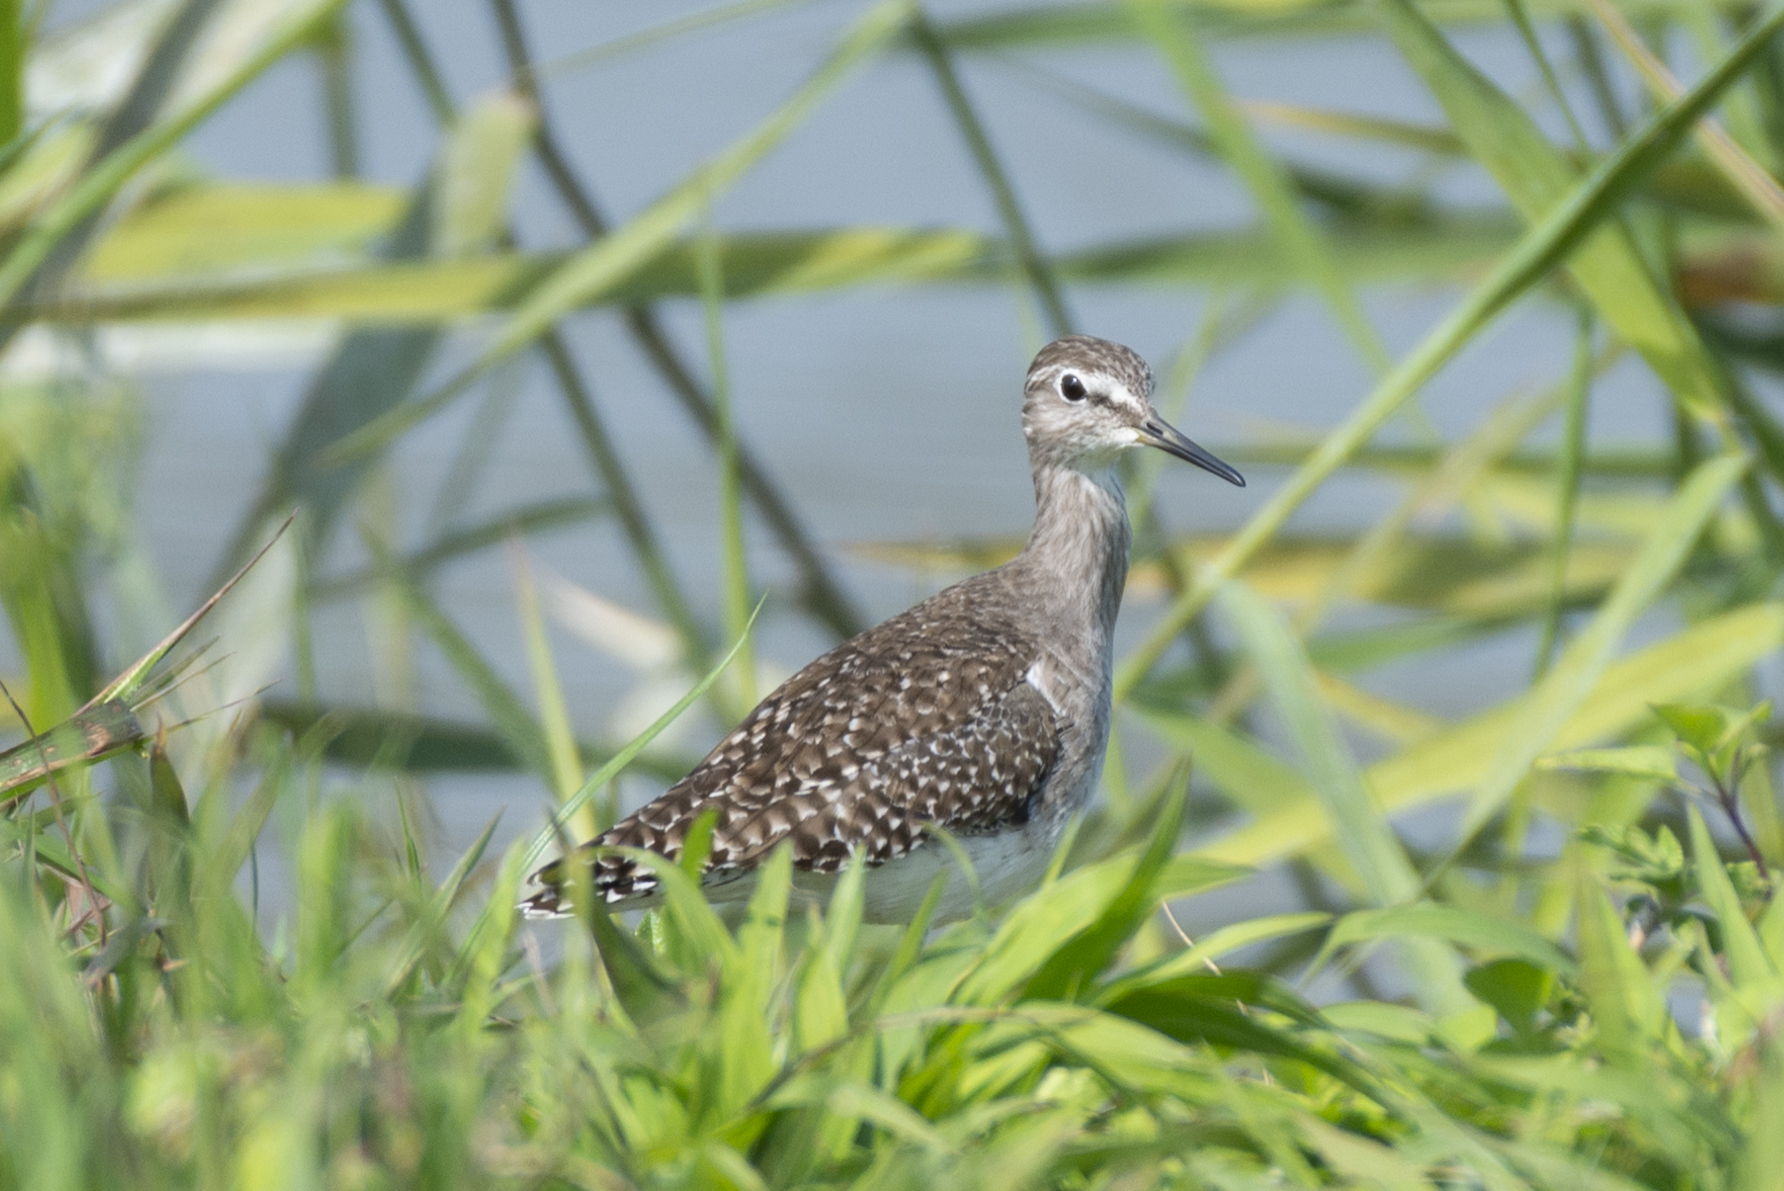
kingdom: Animalia
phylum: Chordata
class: Aves
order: Charadriiformes
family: Scolopacidae
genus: Tringa
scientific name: Tringa glareola
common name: Wood sandpiper
